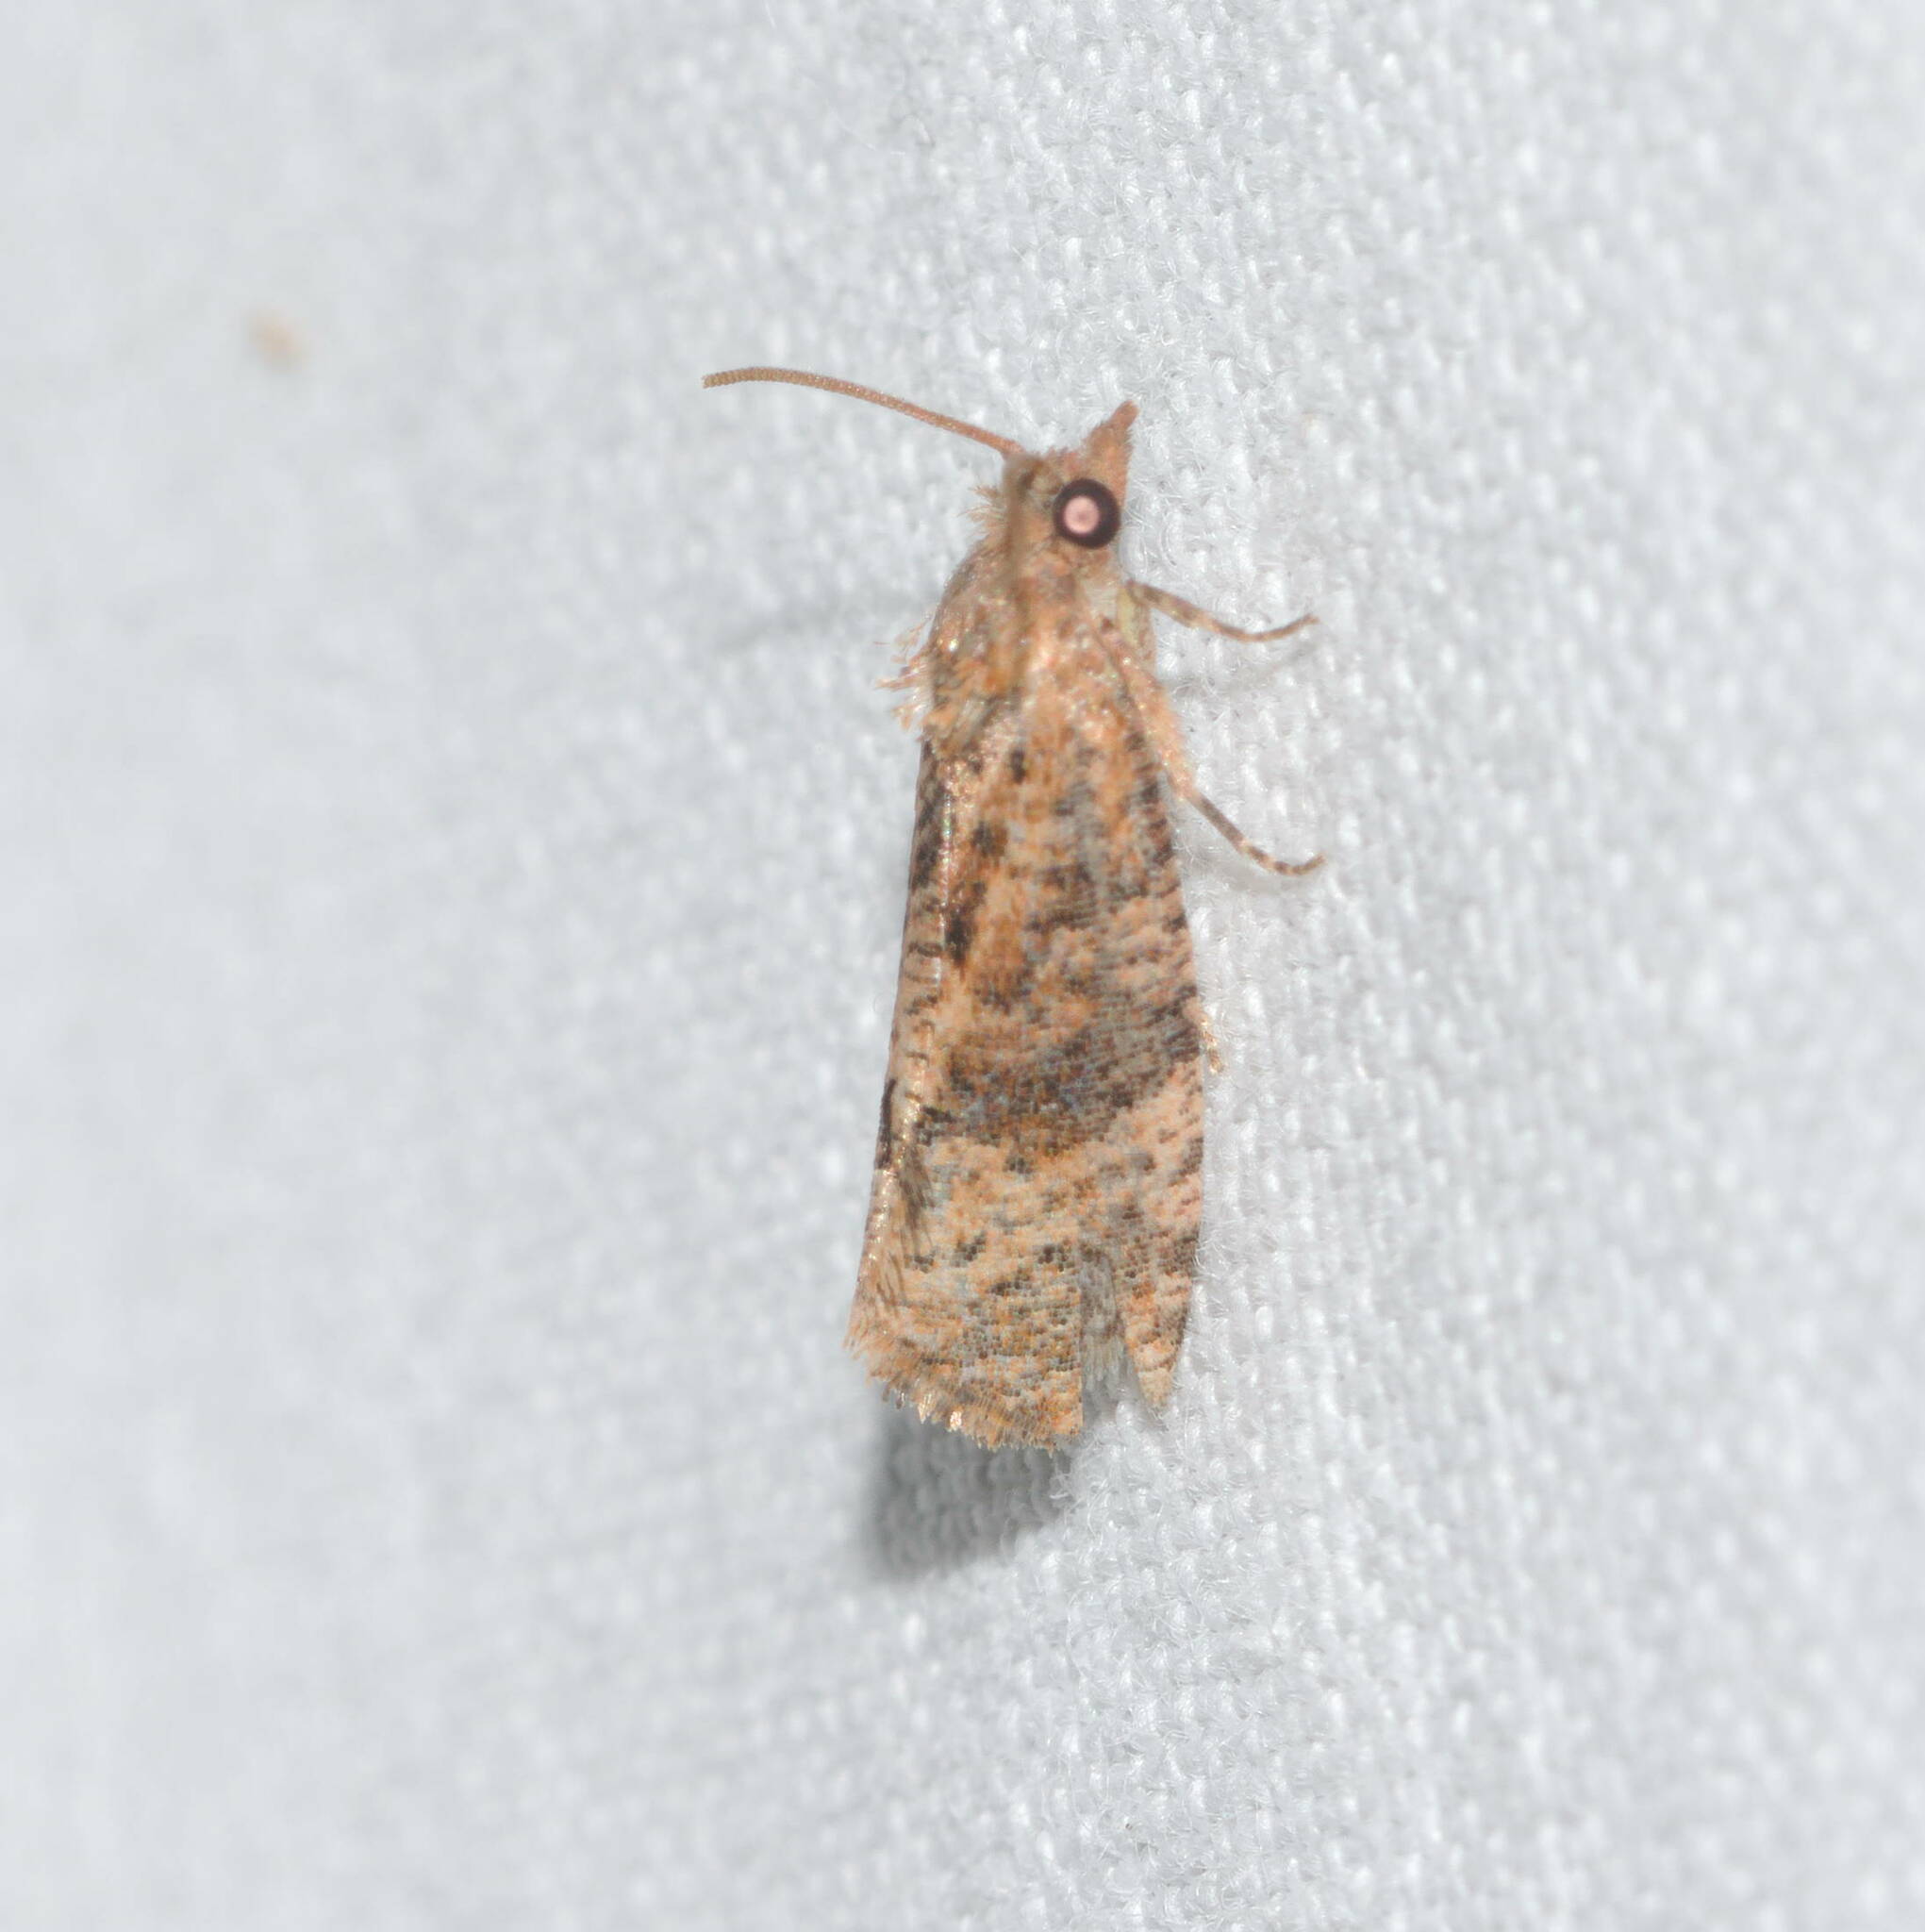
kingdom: Animalia
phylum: Arthropoda
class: Insecta
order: Lepidoptera
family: Tortricidae
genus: Cryptophlebia
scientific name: Cryptophlebia illepida
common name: Moth
